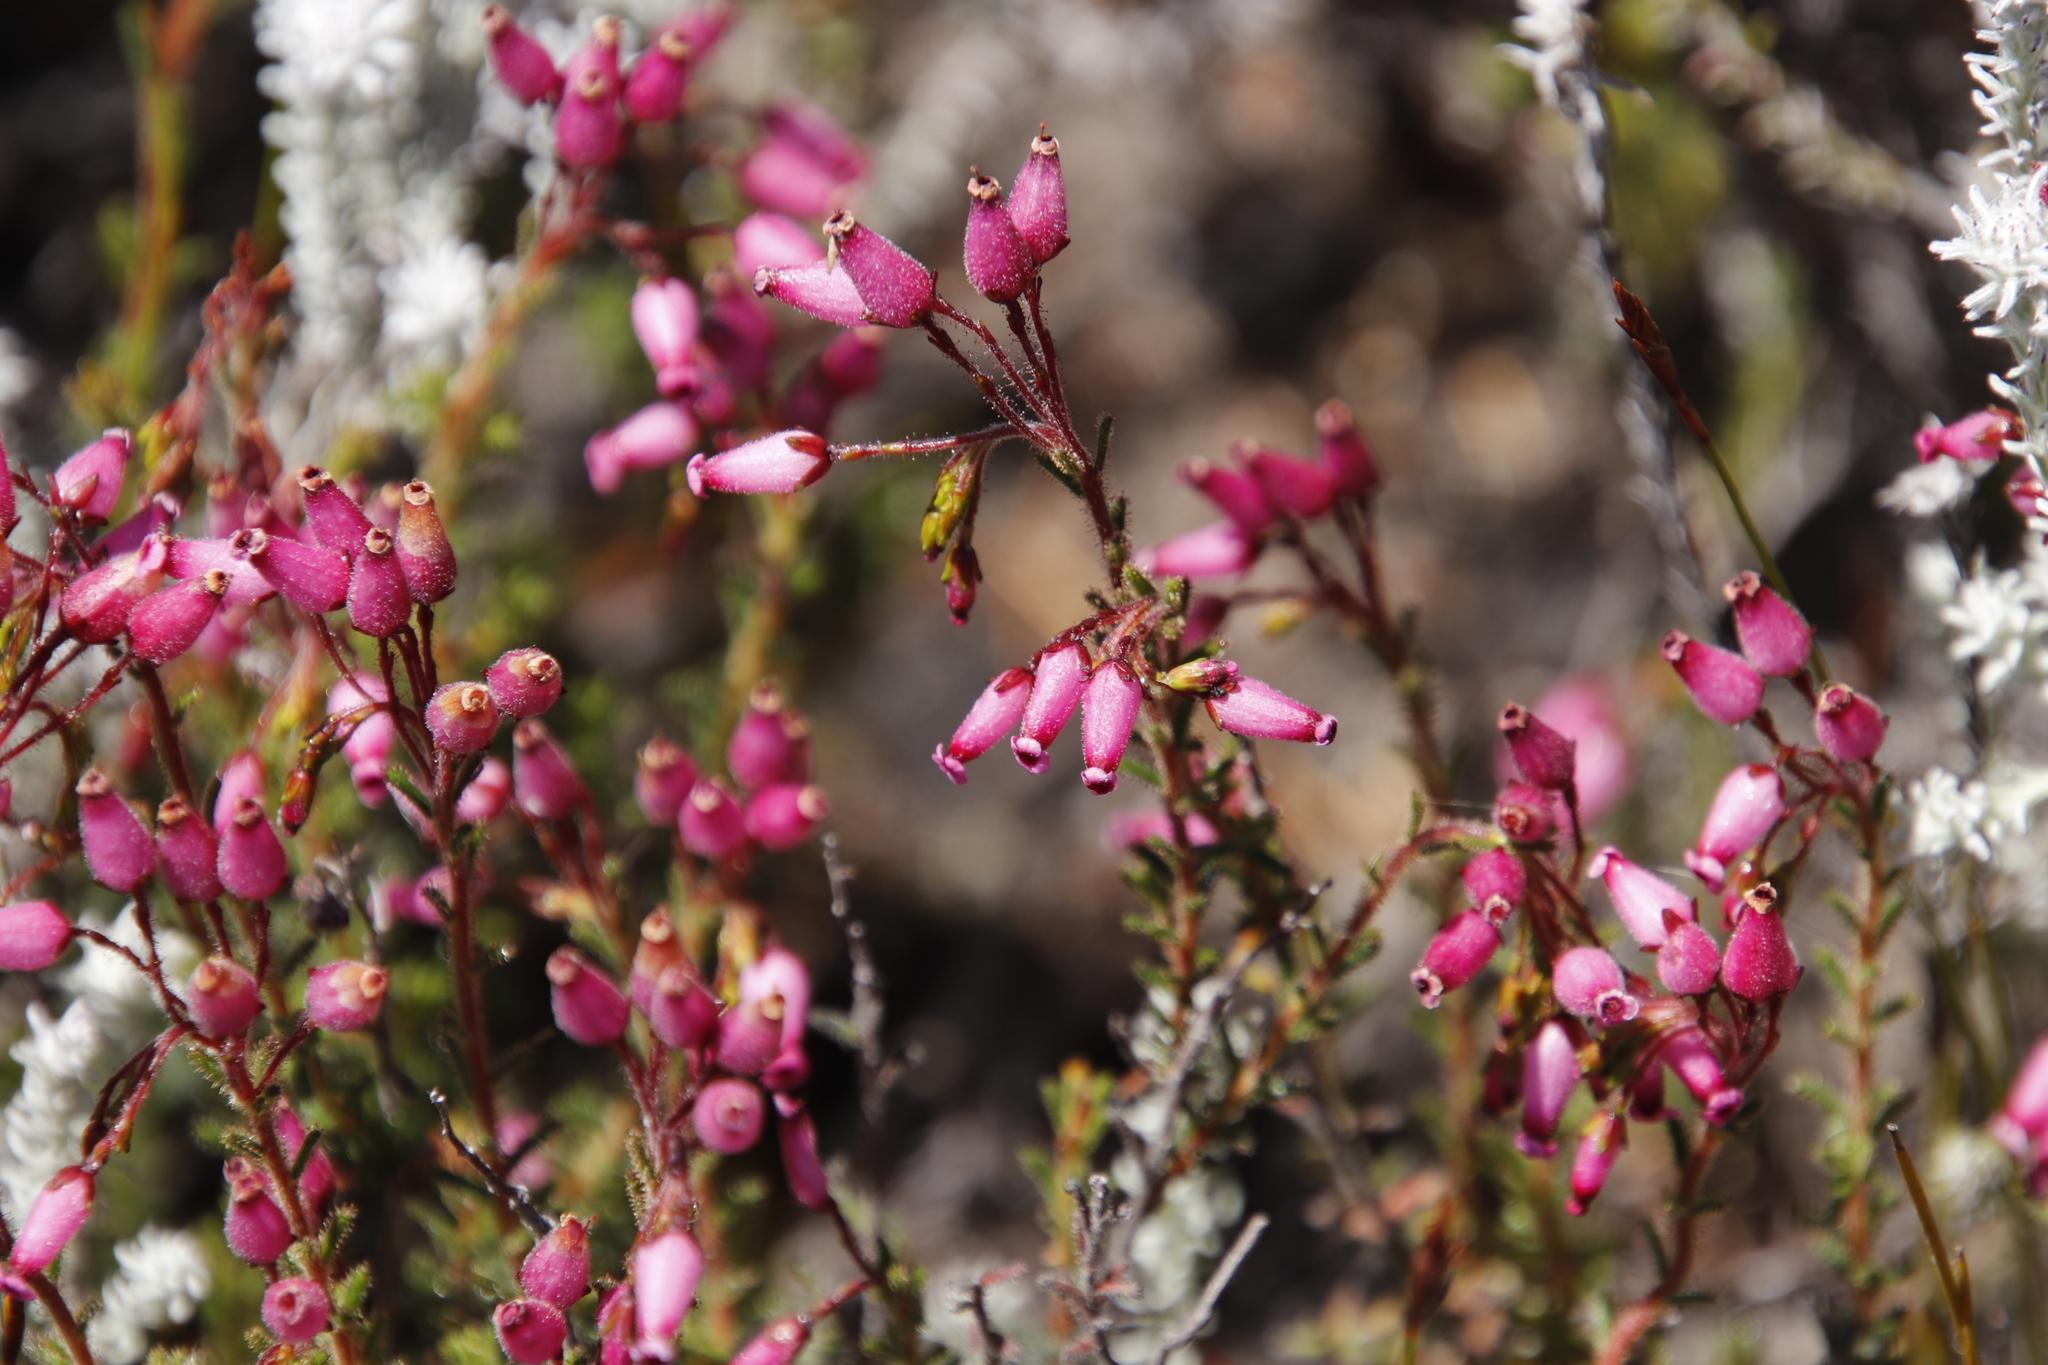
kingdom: Plantae
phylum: Tracheophyta
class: Magnoliopsida
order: Ericales
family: Ericaceae
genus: Erica
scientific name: Erica glutinosa
